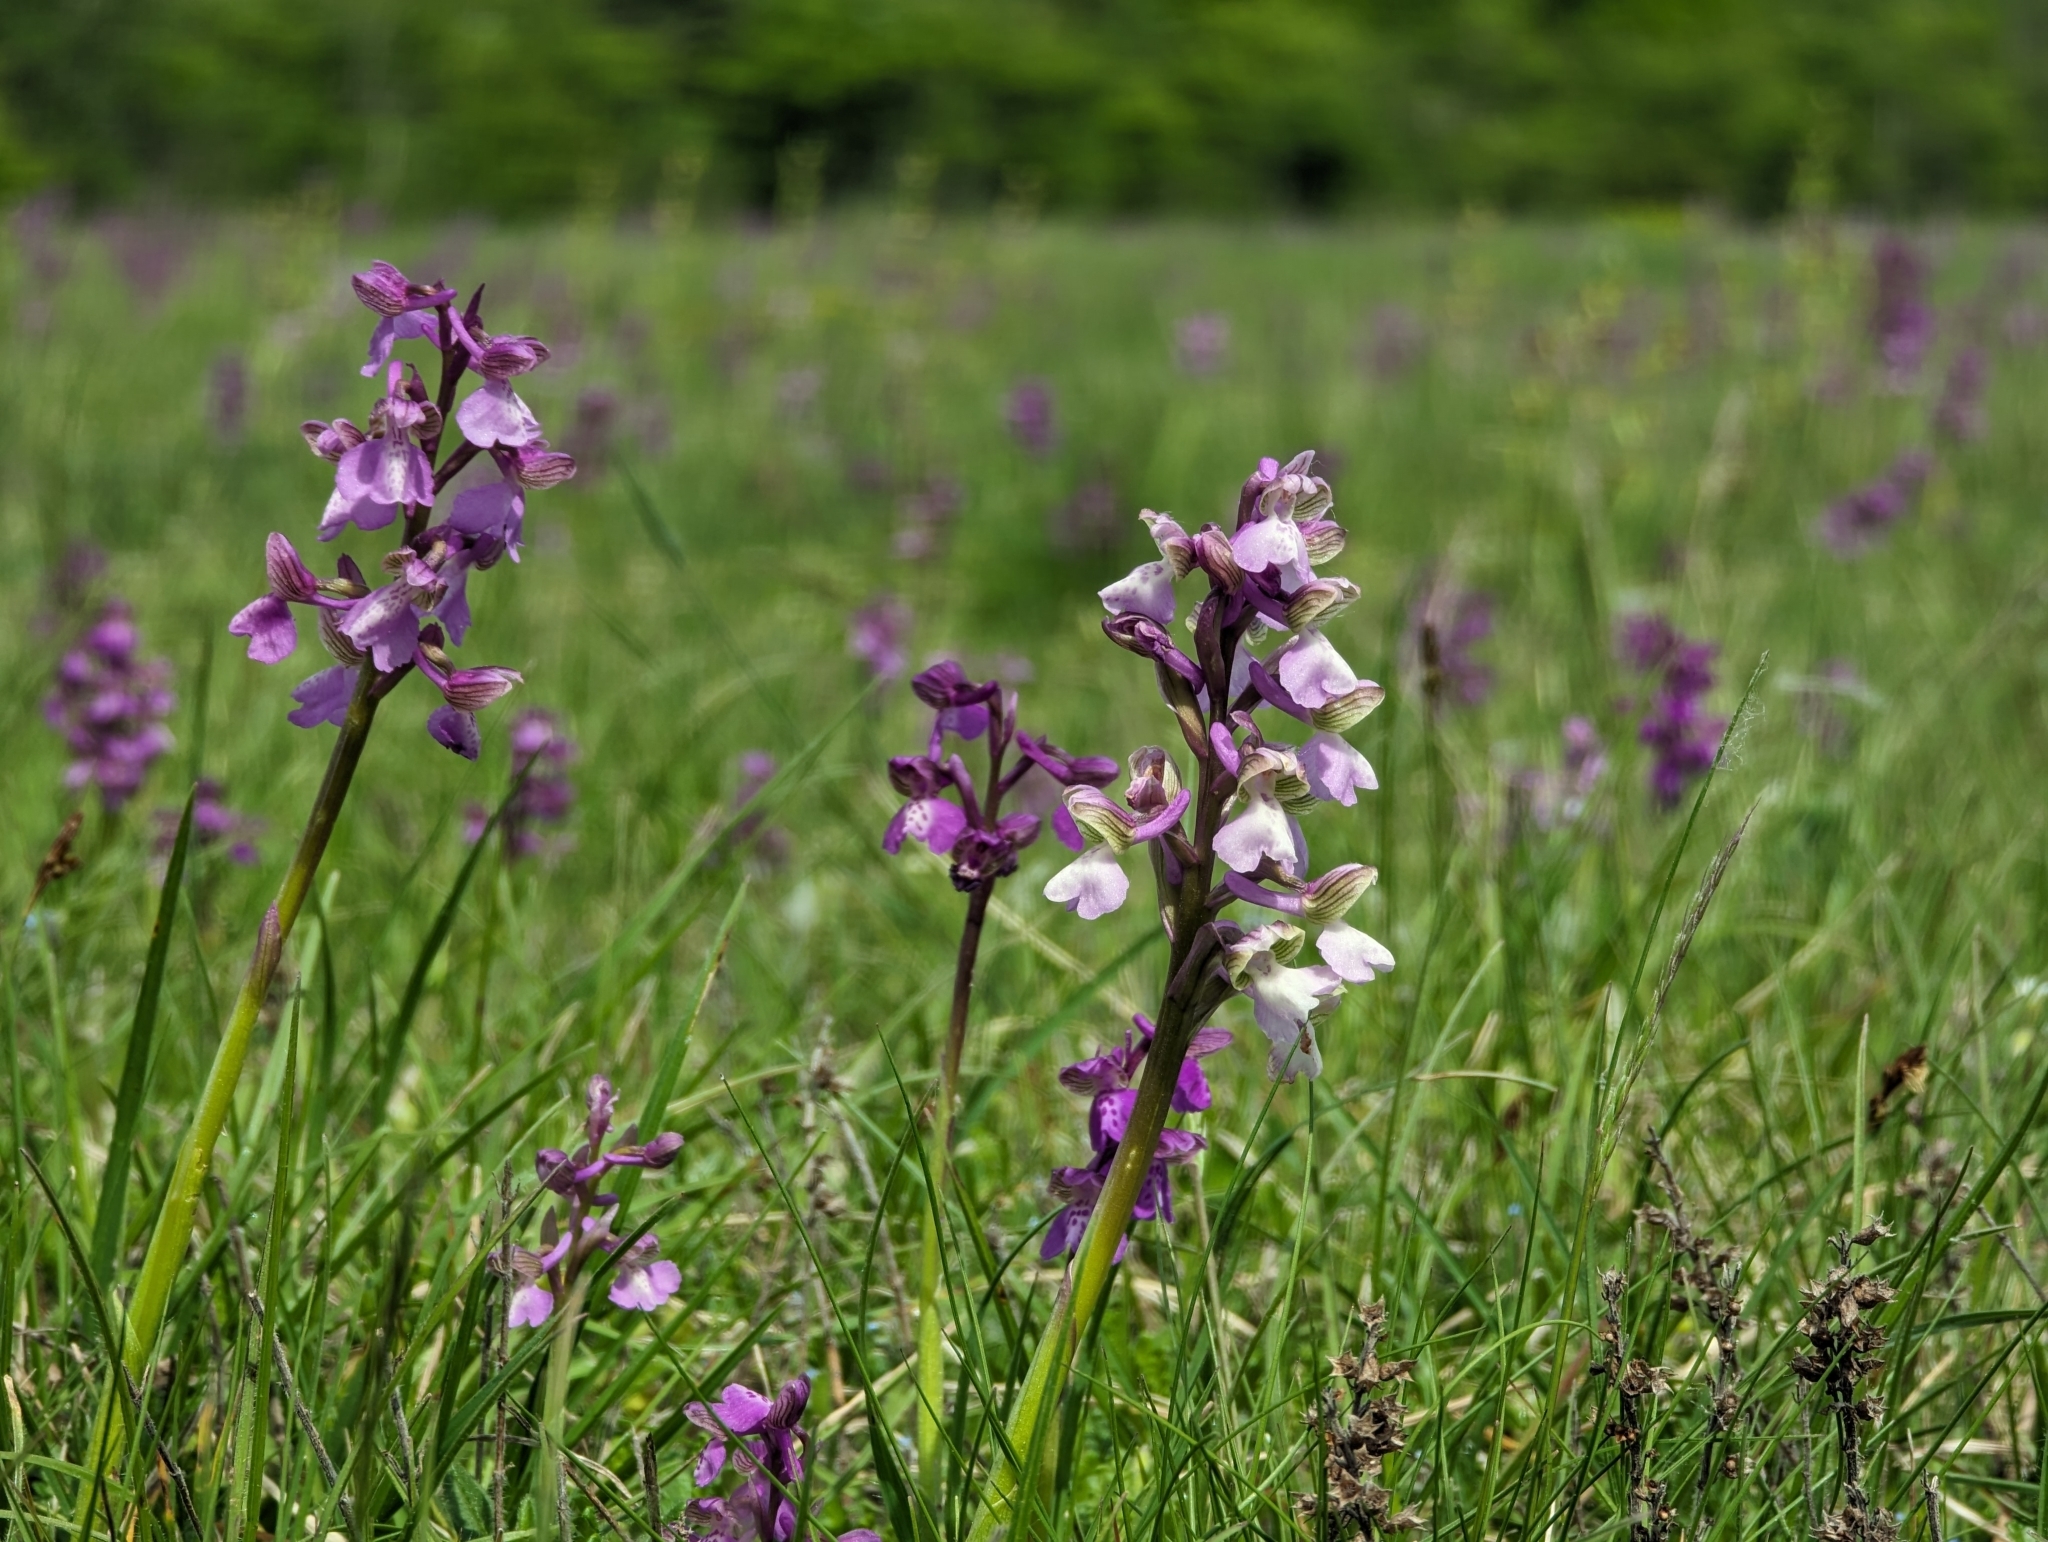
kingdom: Plantae
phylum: Tracheophyta
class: Liliopsida
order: Asparagales
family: Orchidaceae
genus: Anacamptis
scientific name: Anacamptis morio
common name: Green-winged orchid
